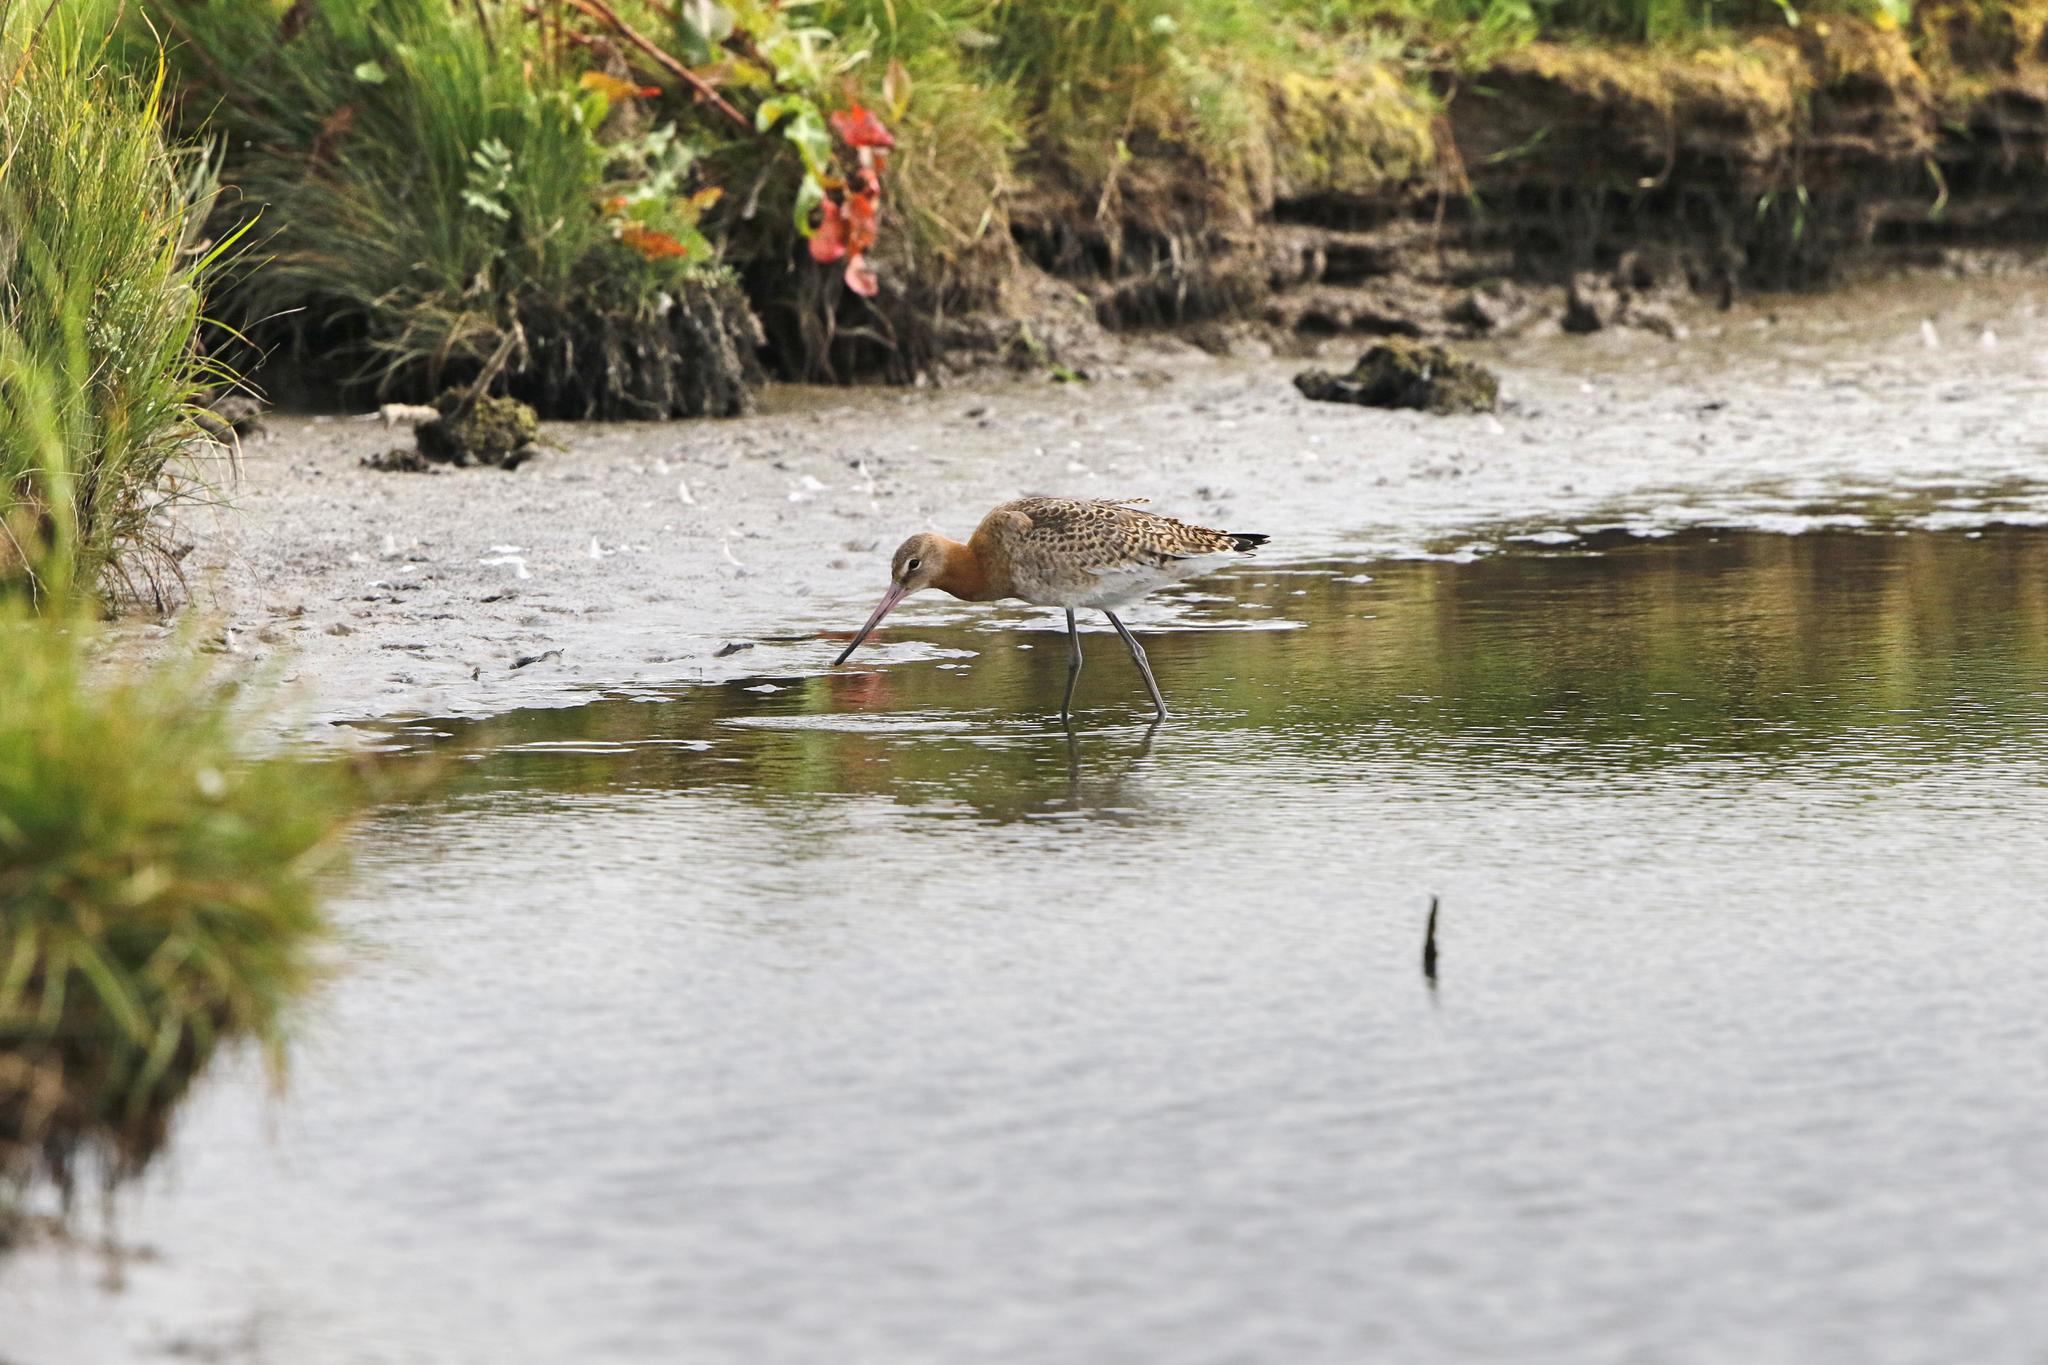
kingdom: Animalia
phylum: Chordata
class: Aves
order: Charadriiformes
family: Scolopacidae
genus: Limosa
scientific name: Limosa limosa
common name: Black-tailed godwit
